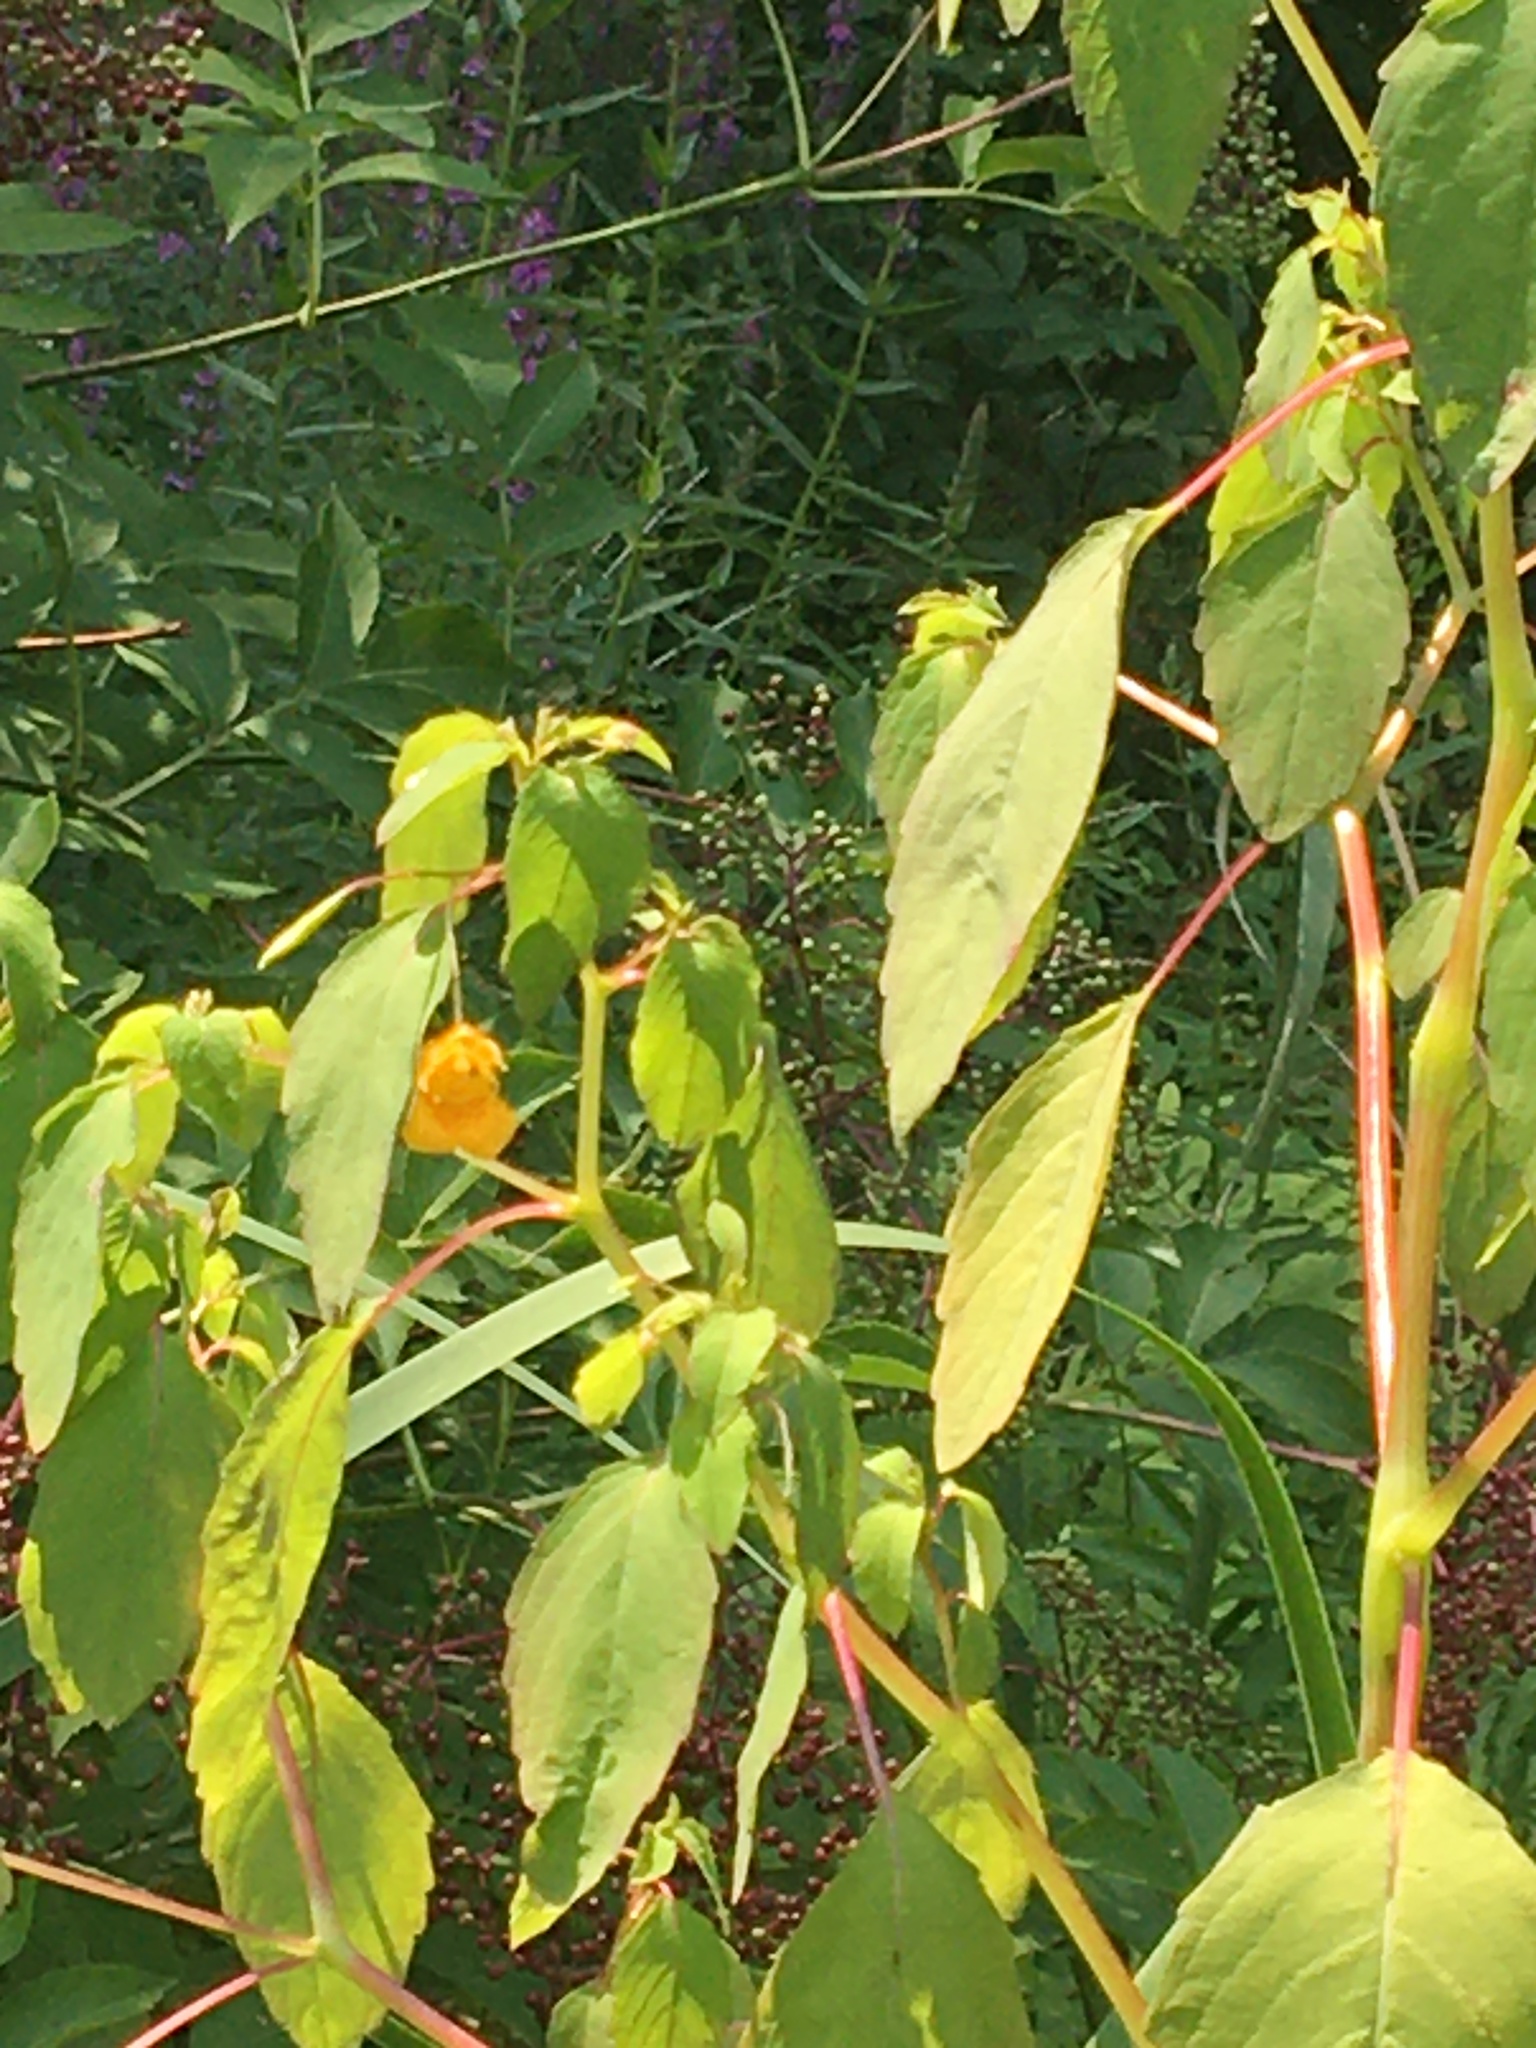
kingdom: Plantae
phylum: Tracheophyta
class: Magnoliopsida
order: Ericales
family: Balsaminaceae
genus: Impatiens
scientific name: Impatiens capensis
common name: Orange balsam
